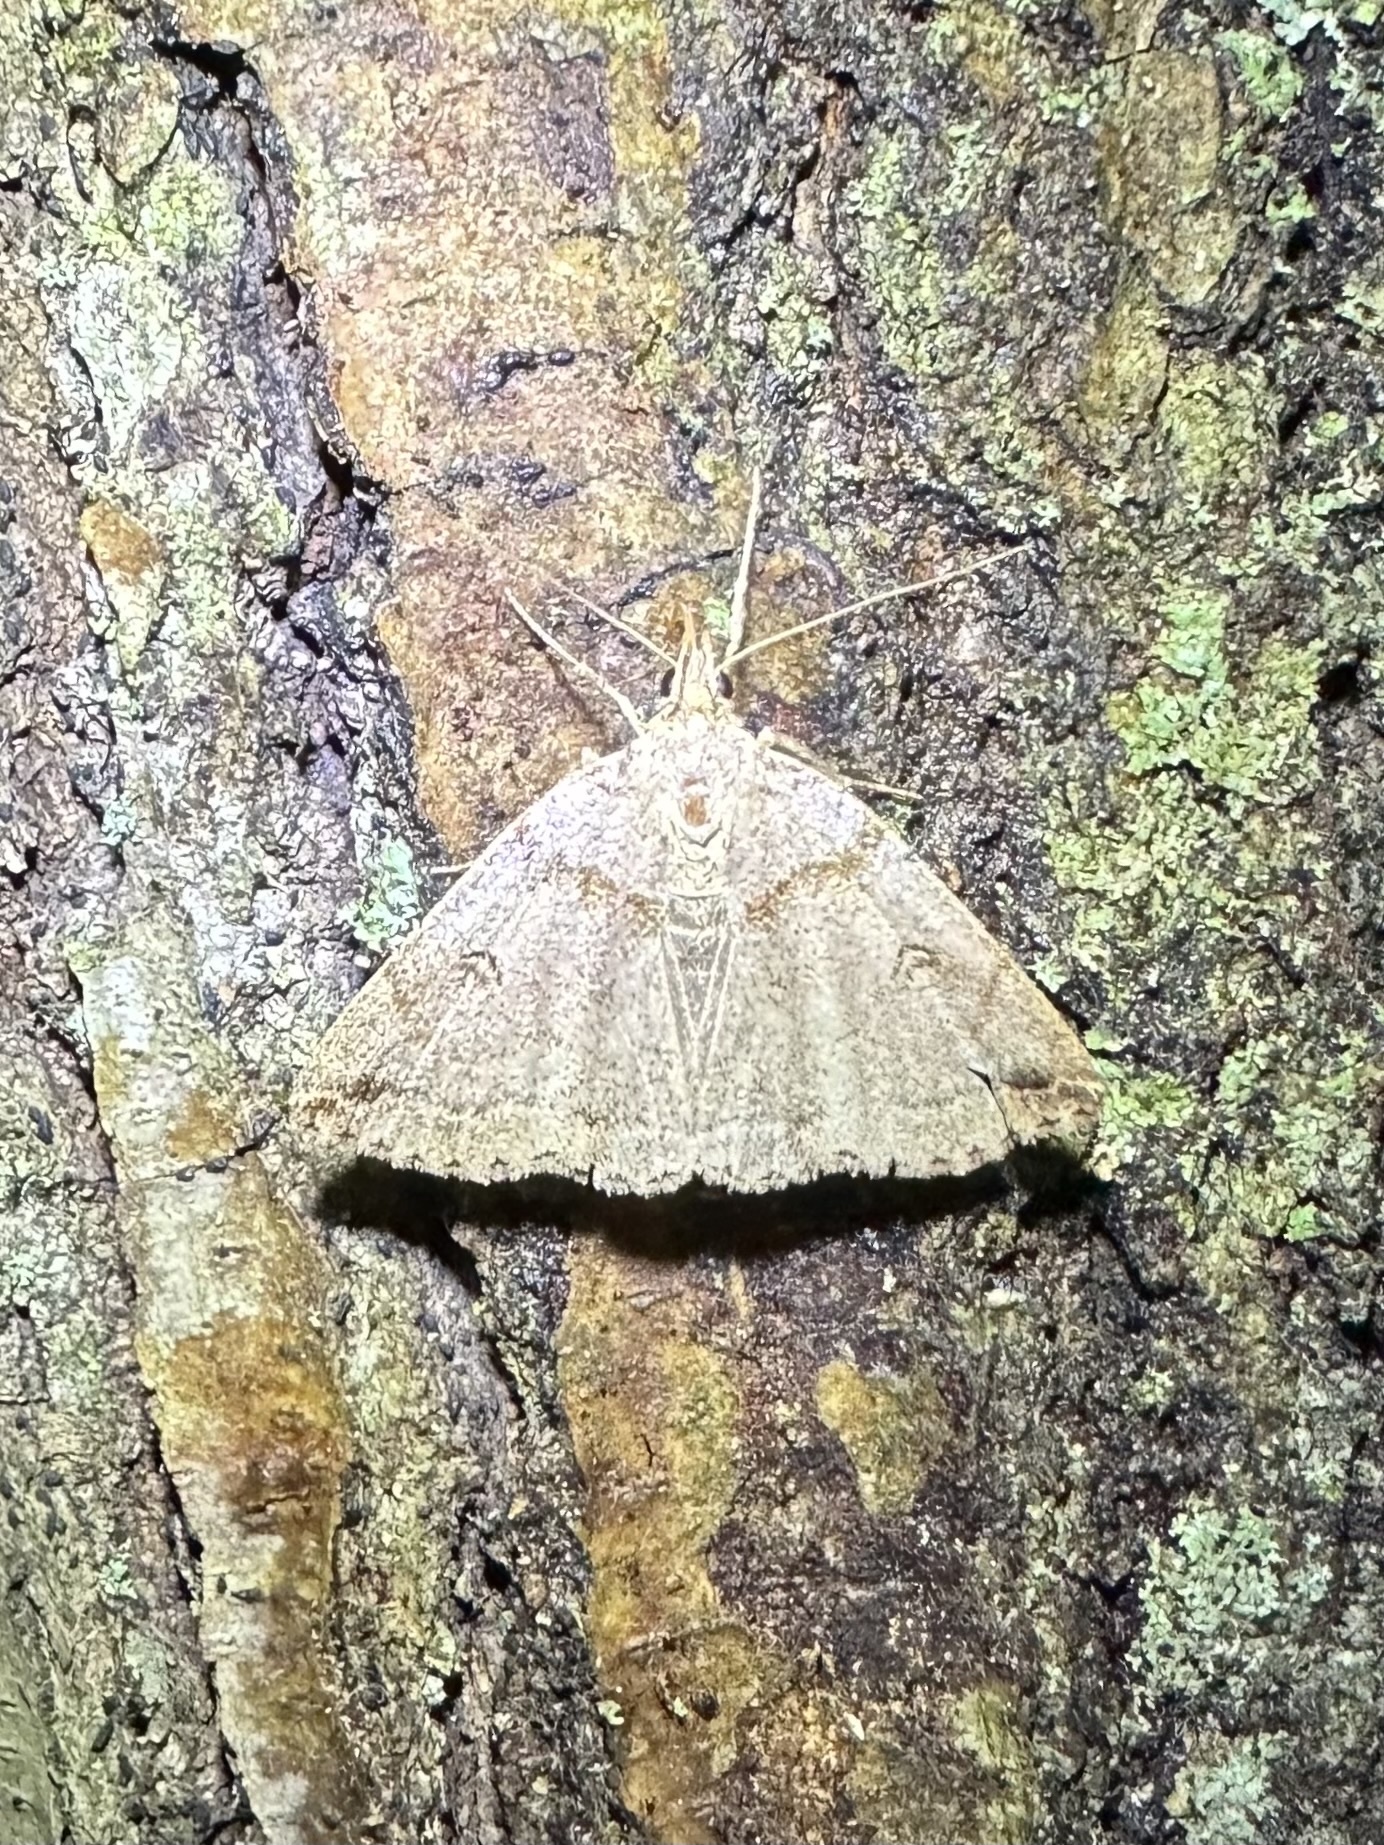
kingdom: Animalia
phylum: Arthropoda
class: Insecta
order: Lepidoptera
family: Erebidae
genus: Zanclognatha
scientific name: Zanclognatha laevigata
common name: Variable fan-foot
